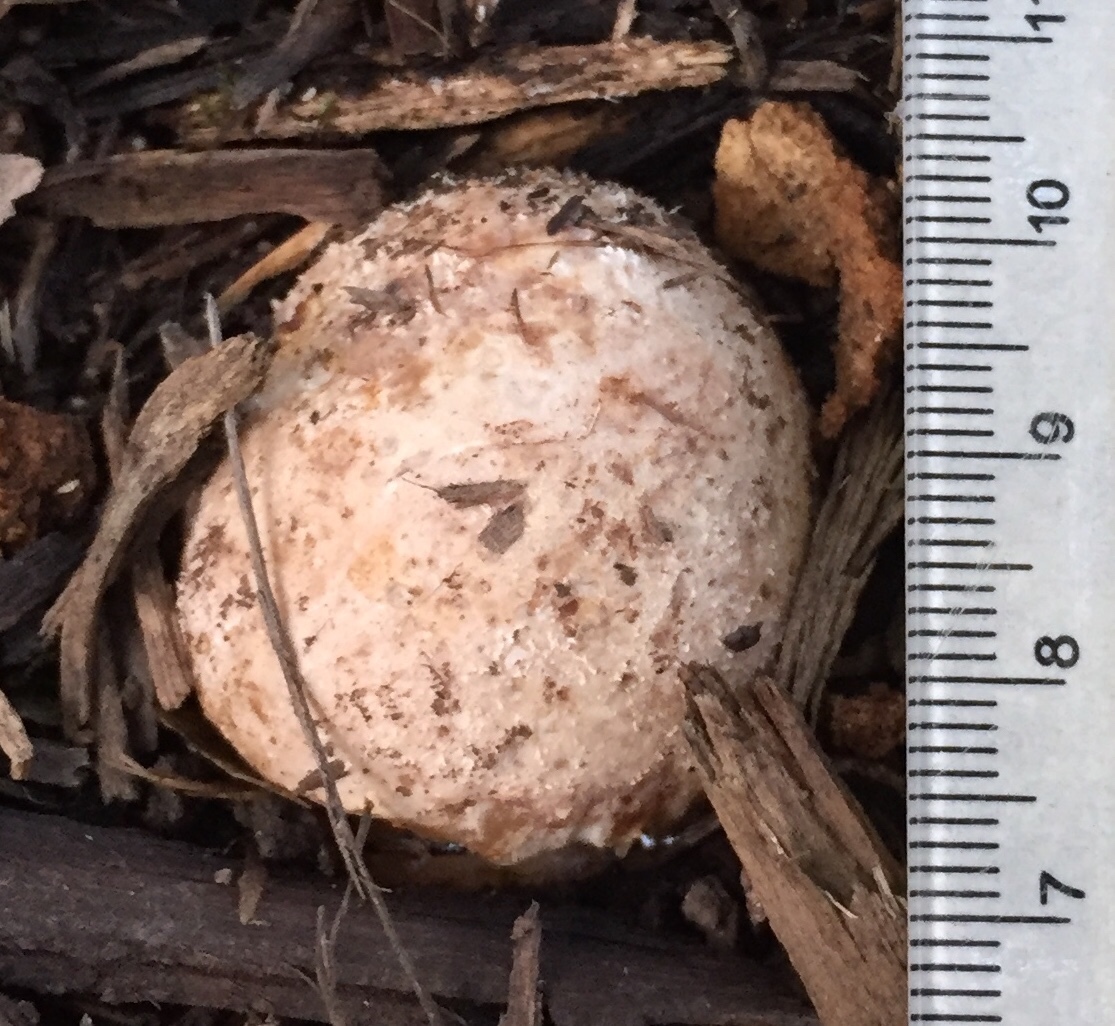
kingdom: Fungi
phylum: Basidiomycota
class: Agaricomycetes
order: Phallales
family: Phallaceae
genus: Phallus
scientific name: Phallus ravenelii
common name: Ravenel's stinkhorn
